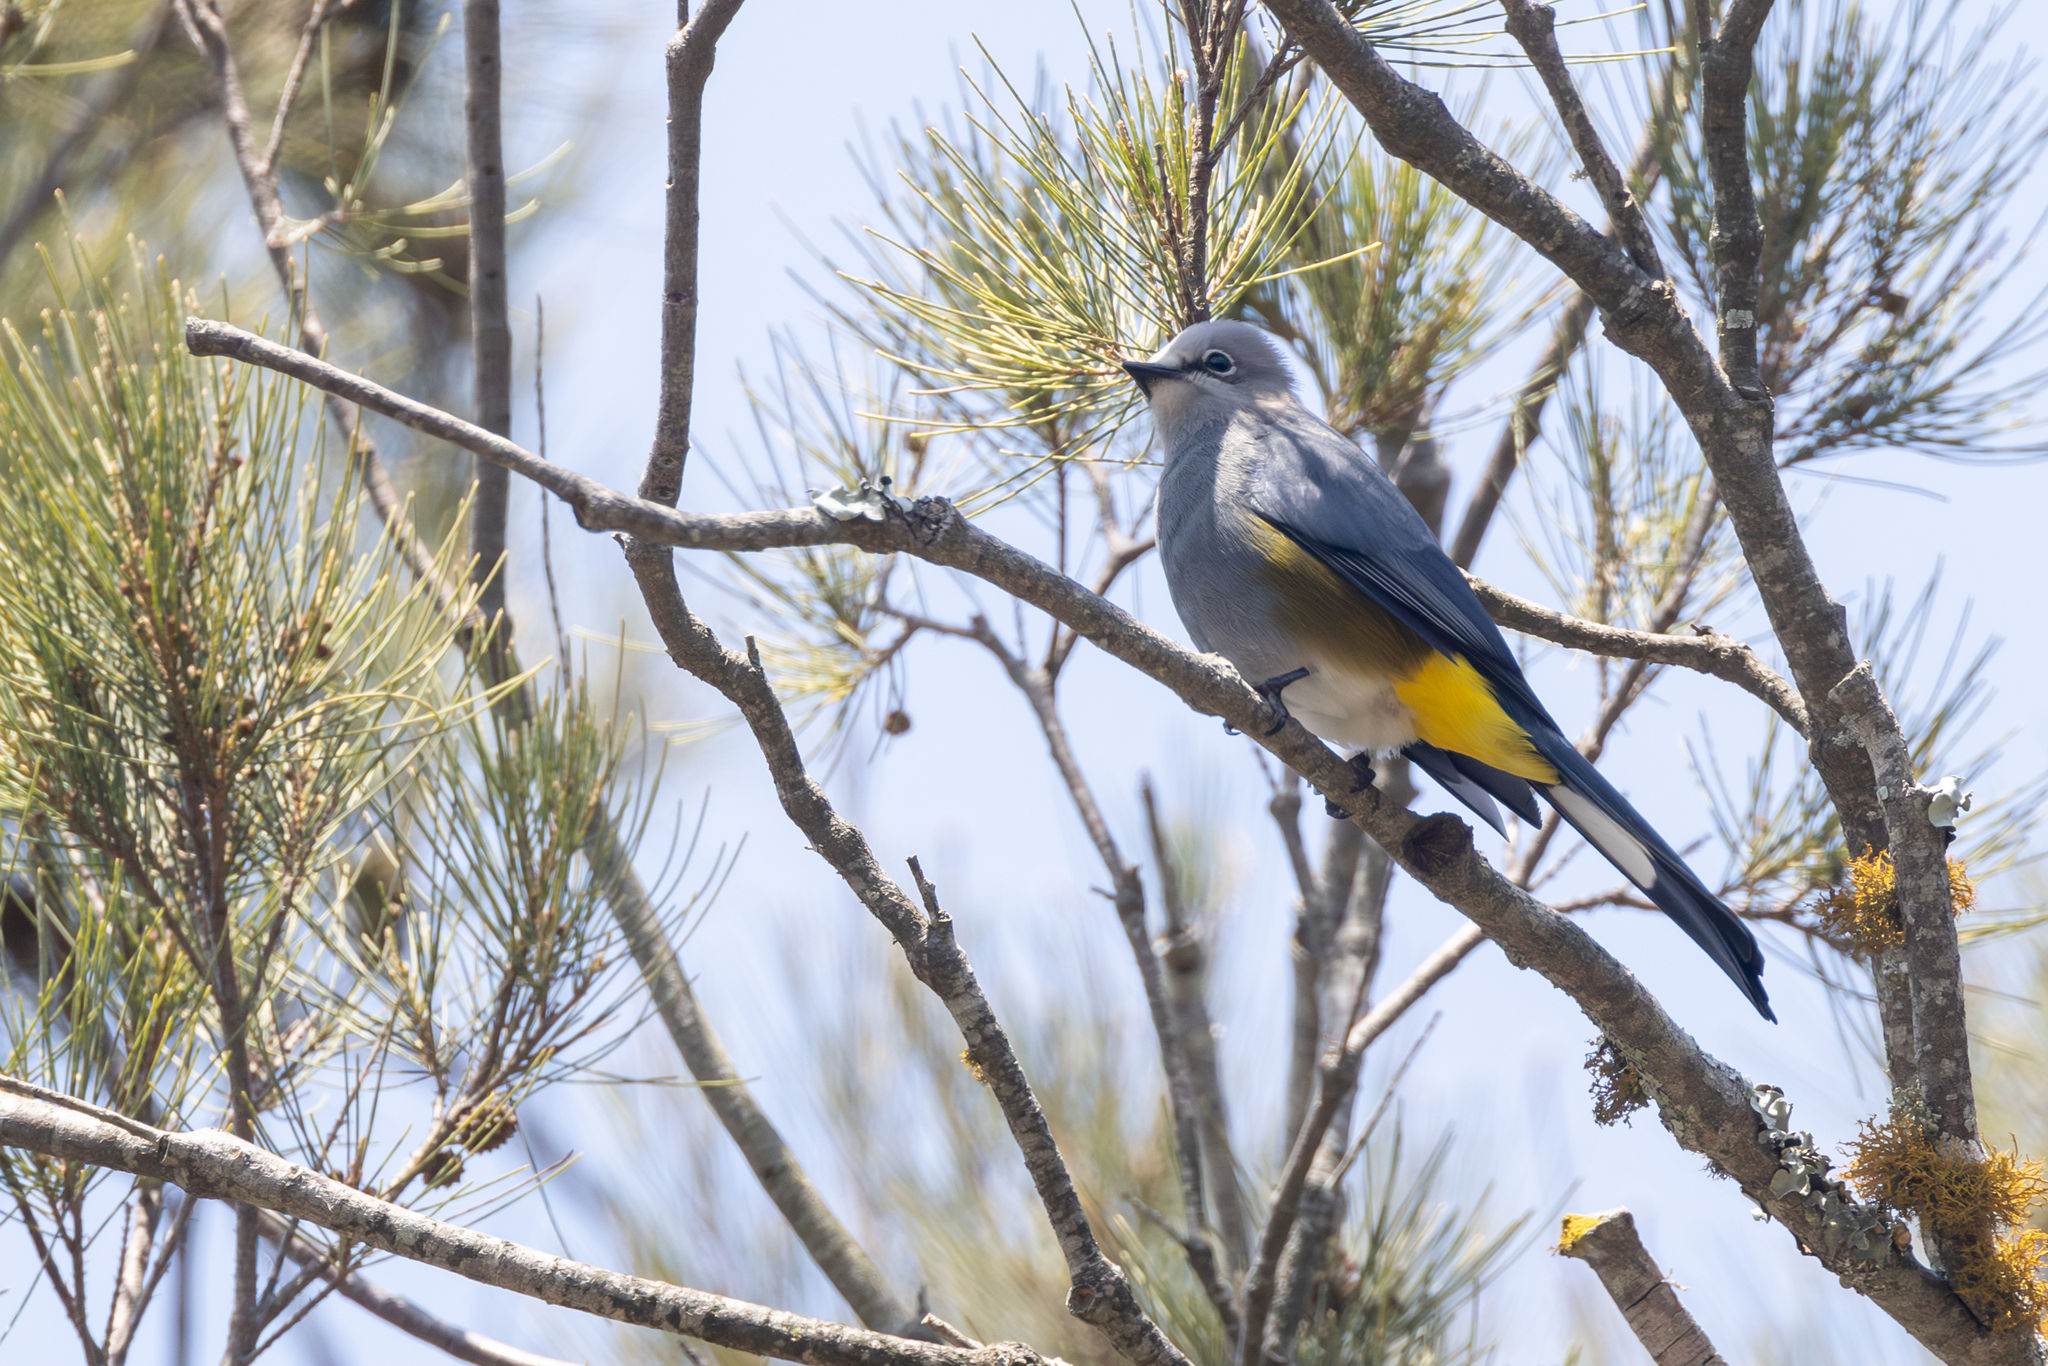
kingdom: Animalia
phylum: Chordata
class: Aves
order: Passeriformes
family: Ptilogonatidae
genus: Ptilogonys
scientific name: Ptilogonys cinereus
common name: Gray silky-flycatcher
